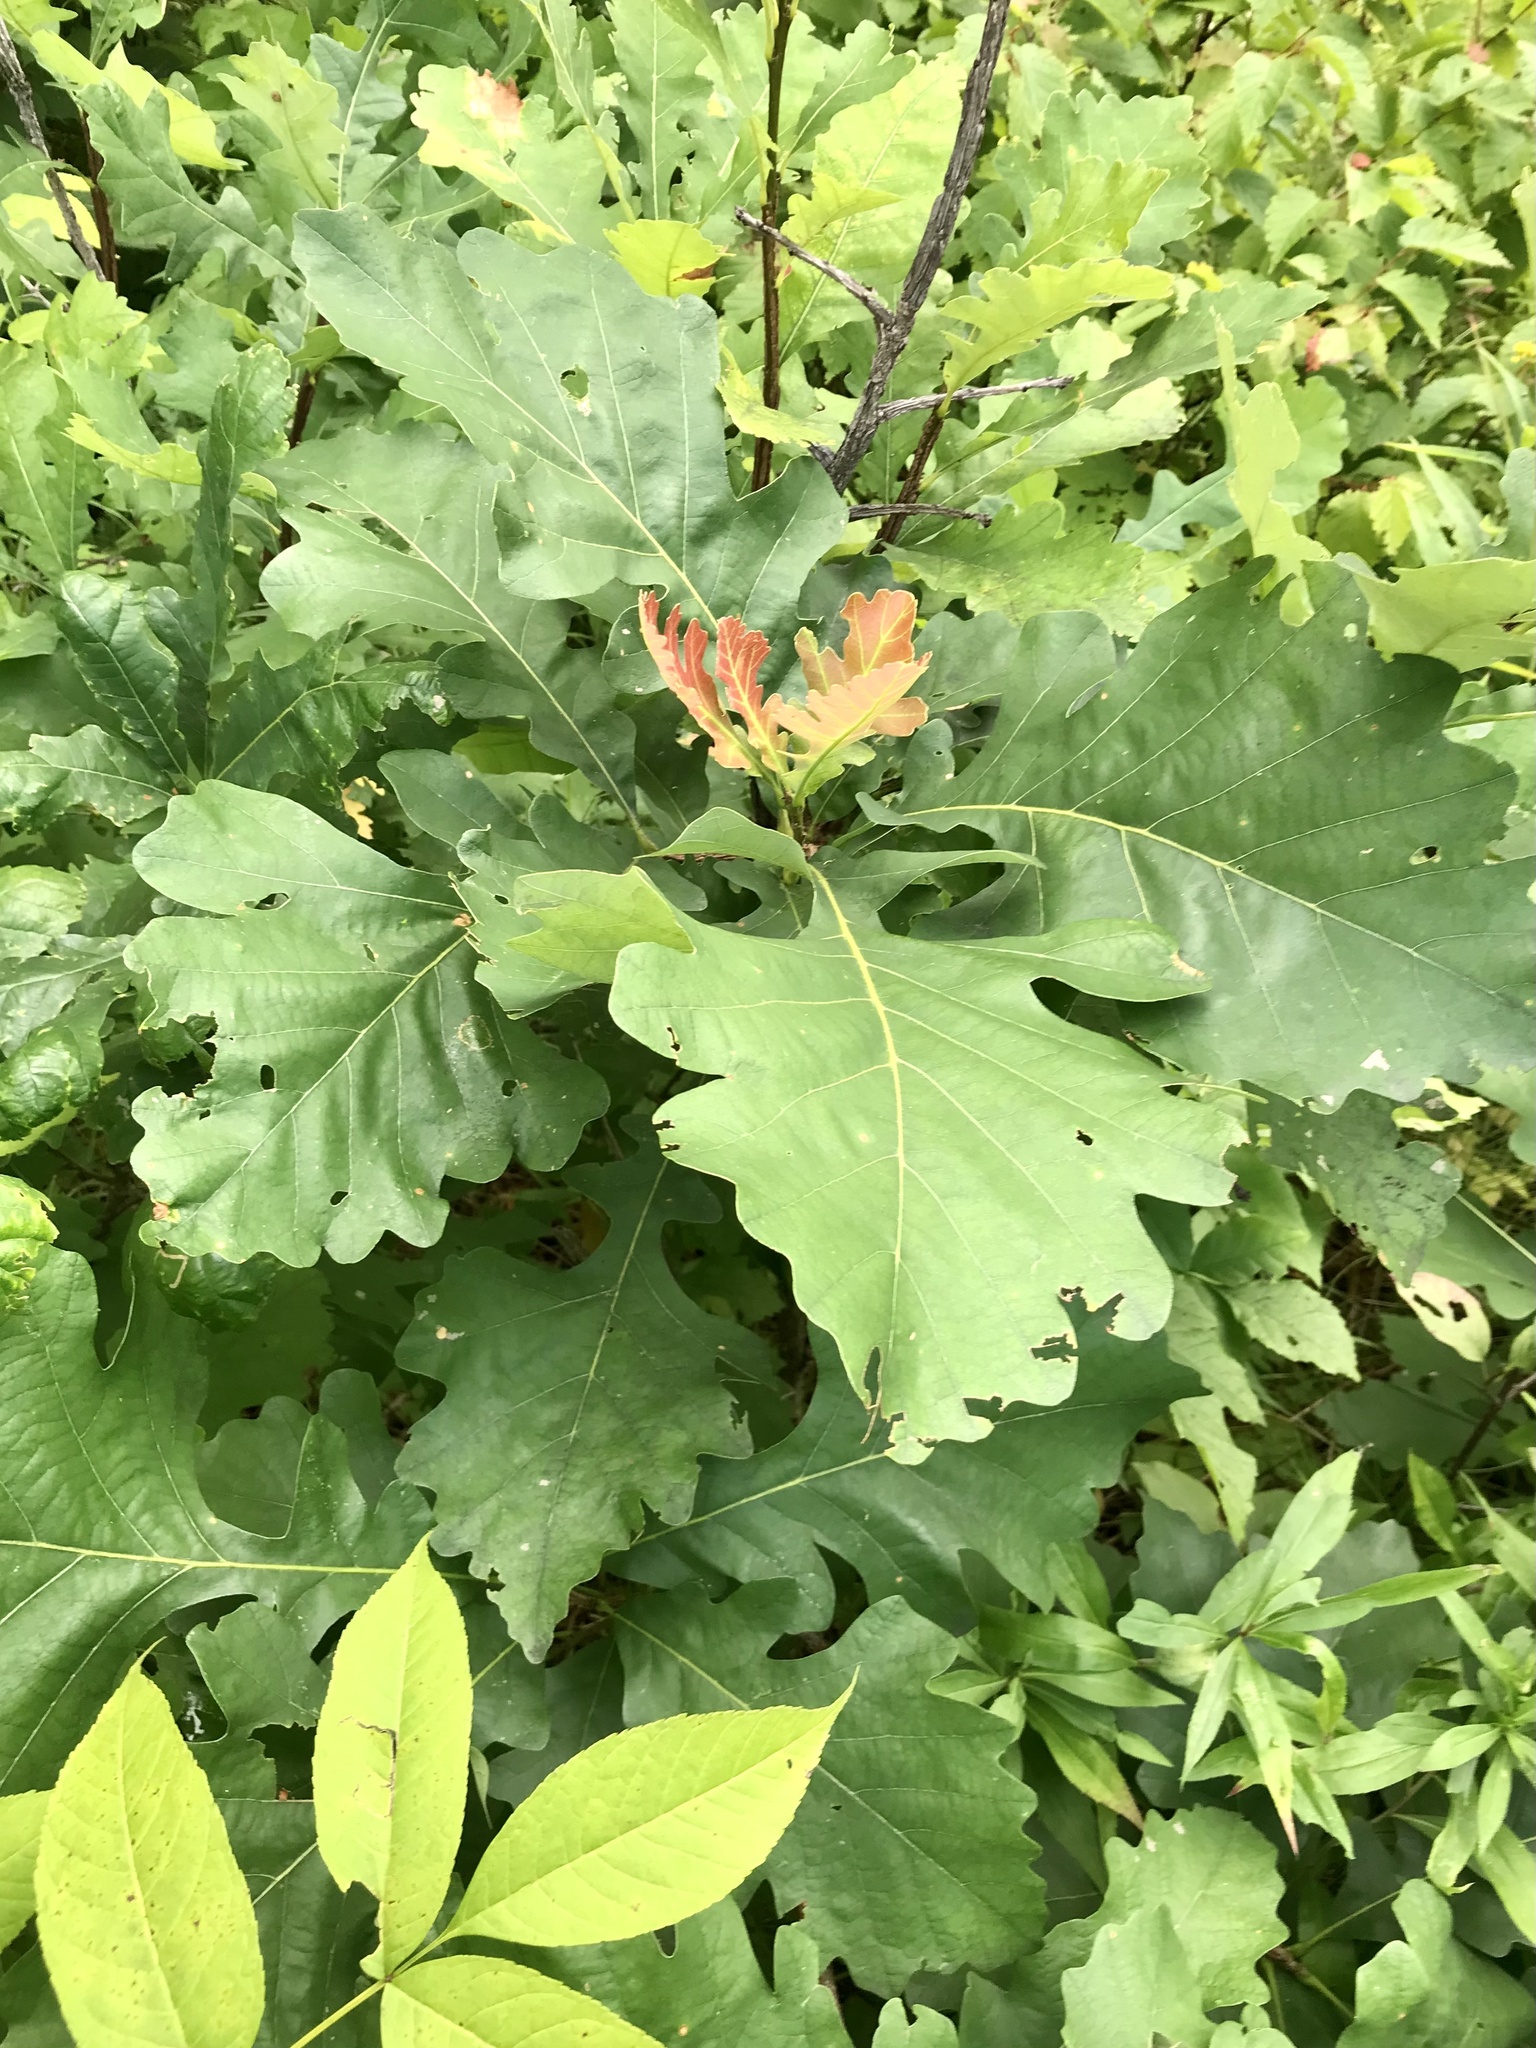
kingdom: Plantae
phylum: Tracheophyta
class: Magnoliopsida
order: Fagales
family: Fagaceae
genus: Quercus
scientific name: Quercus macrocarpa
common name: Bur oak
